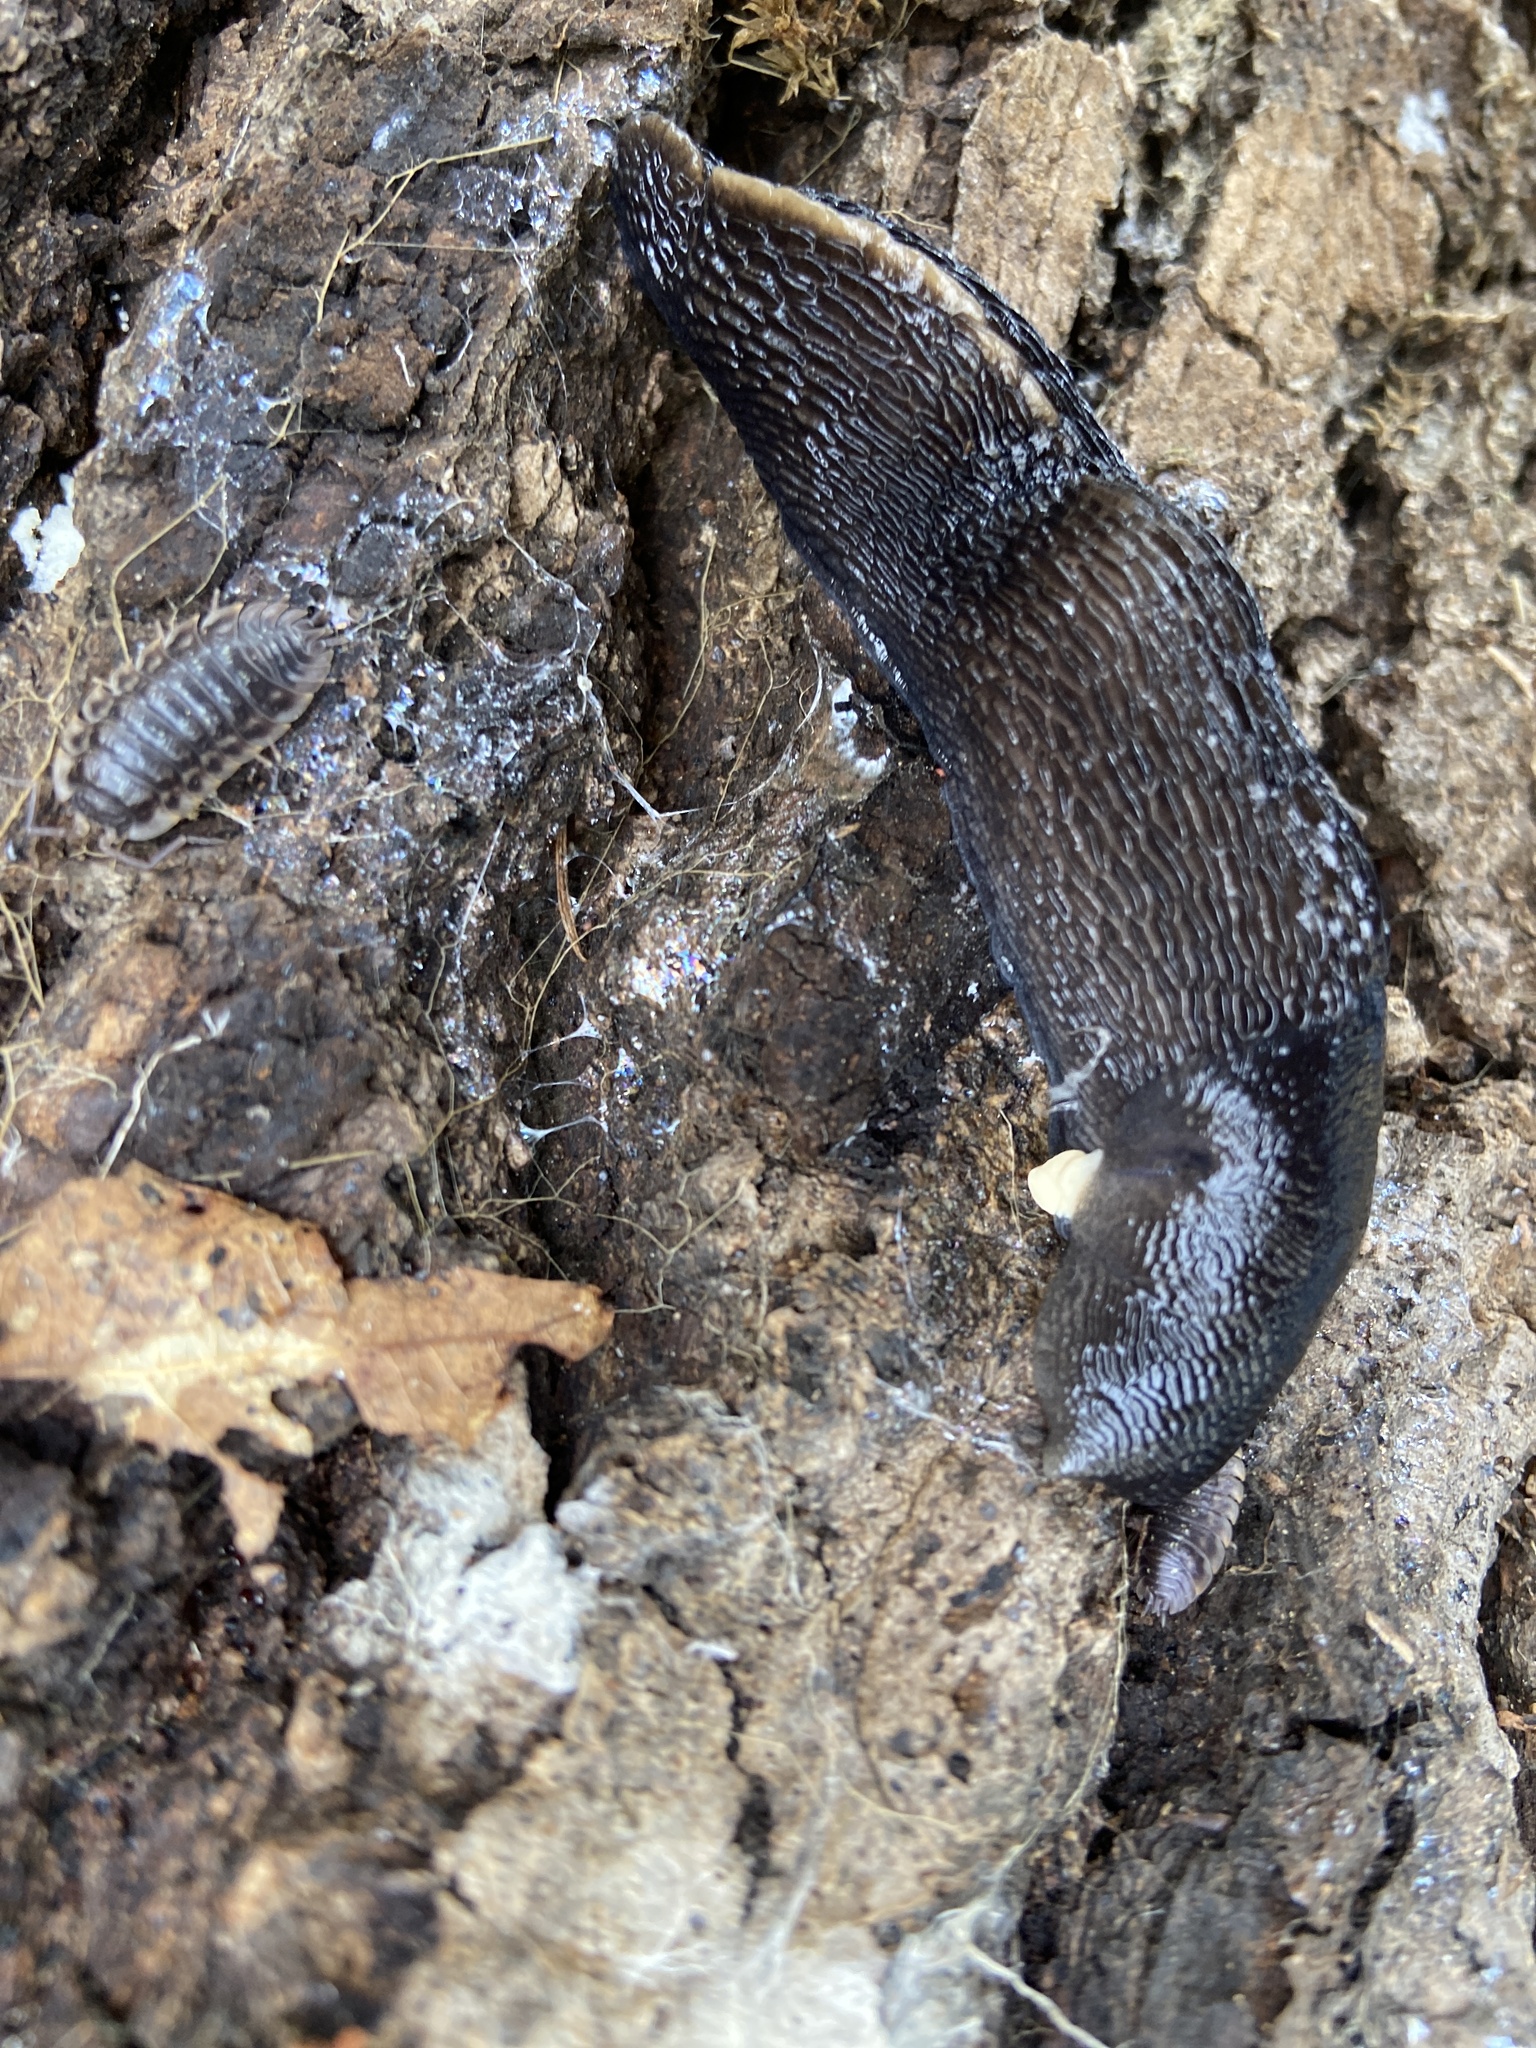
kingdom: Animalia
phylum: Mollusca
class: Gastropoda
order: Stylommatophora
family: Limacidae
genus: Limax
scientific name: Limax cinereoniger
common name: Ash-black slug
